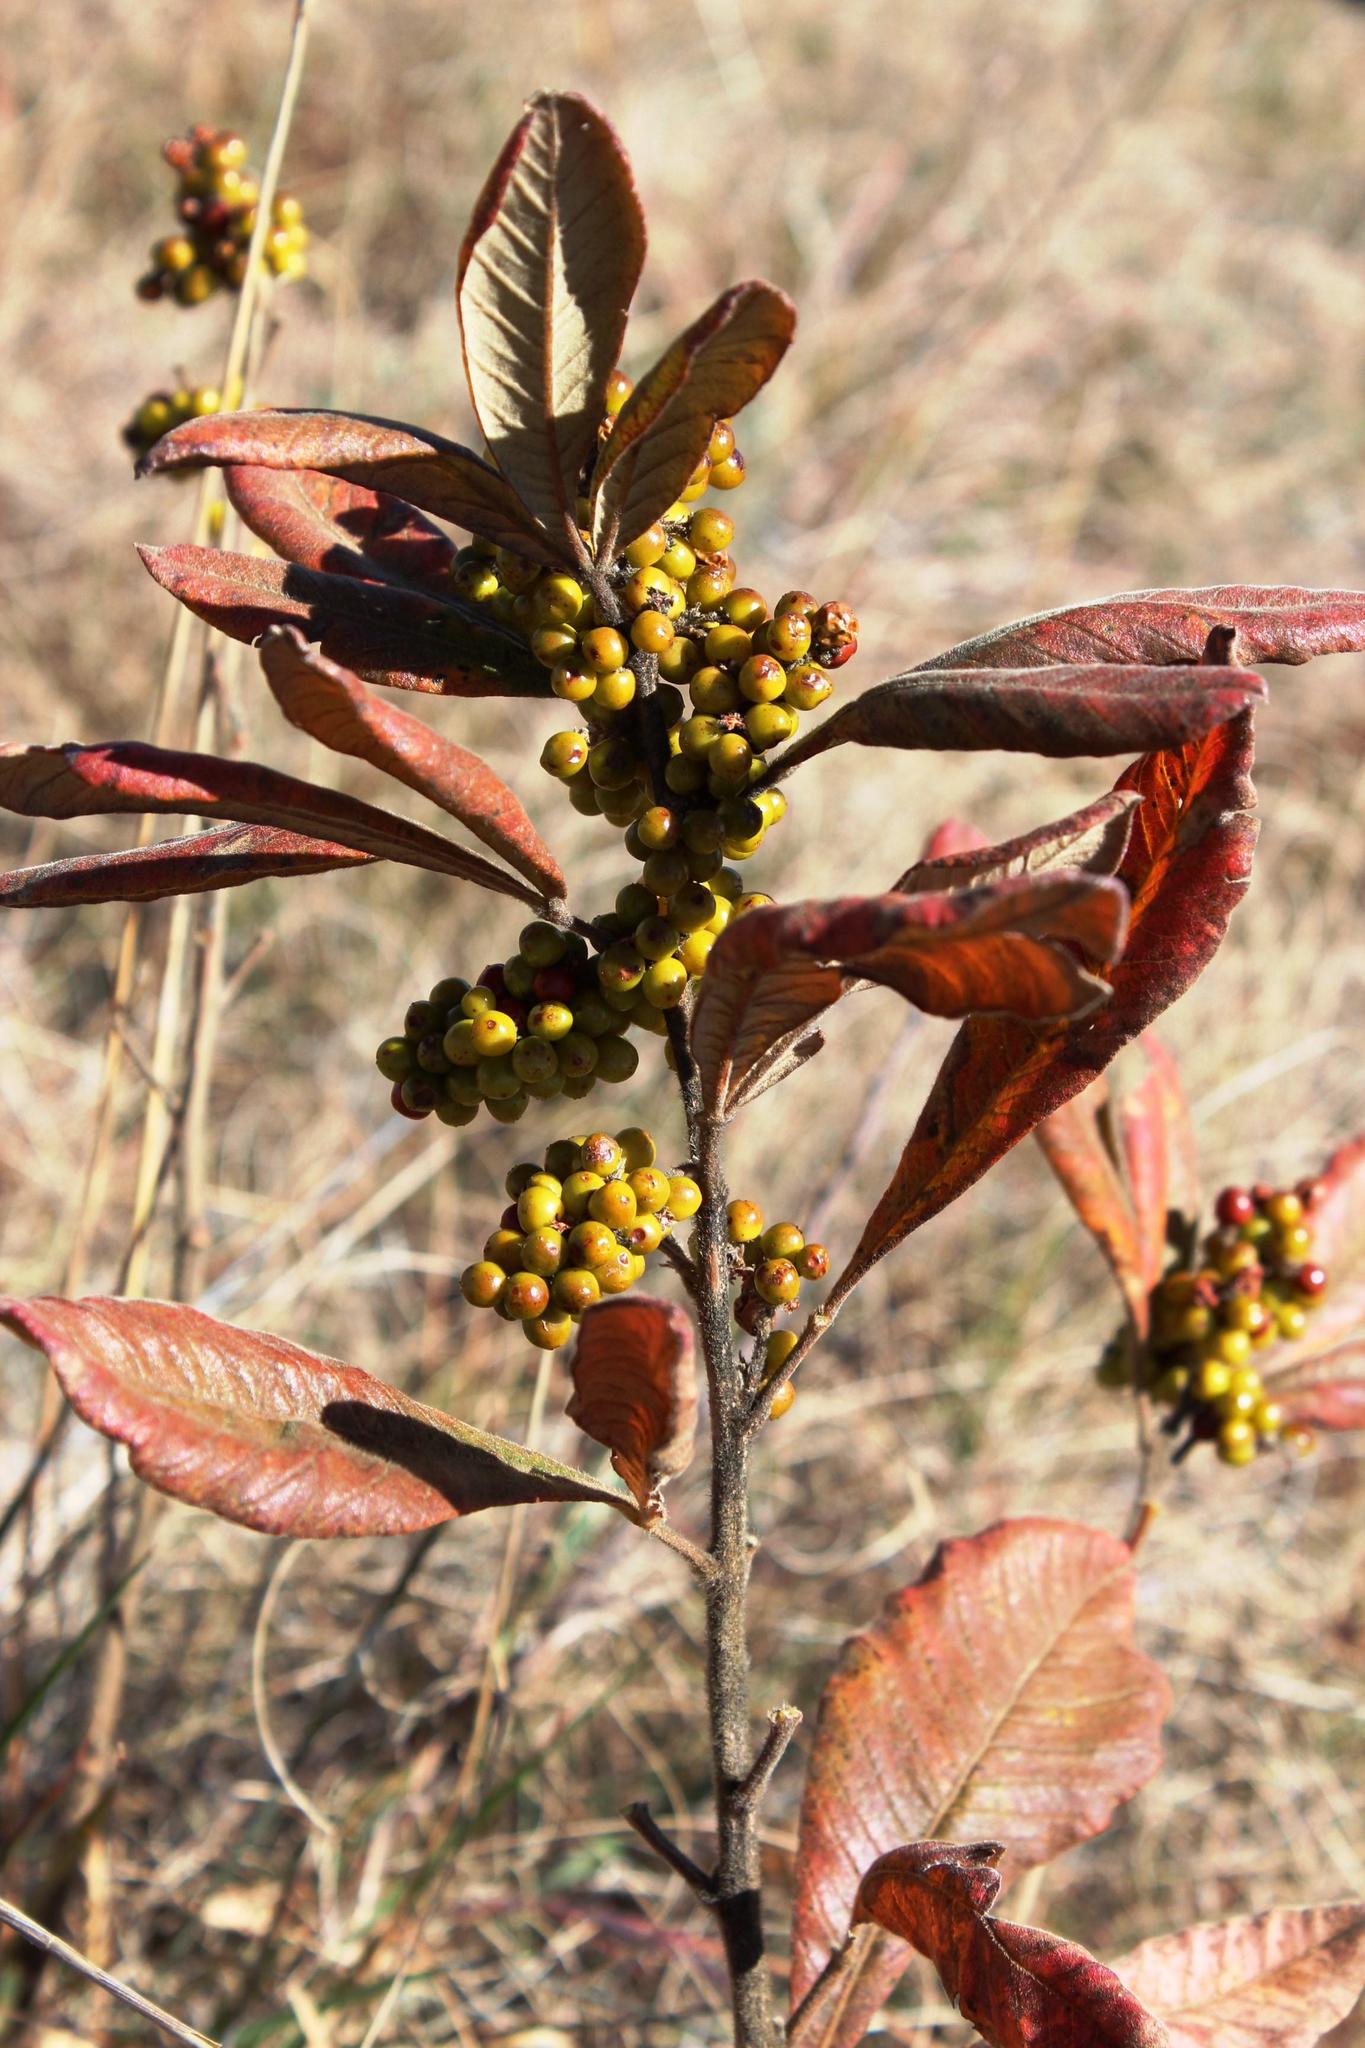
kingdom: Plantae
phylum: Tracheophyta
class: Magnoliopsida
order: Sapindales
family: Anacardiaceae
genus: Searsia
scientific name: Searsia discolor
